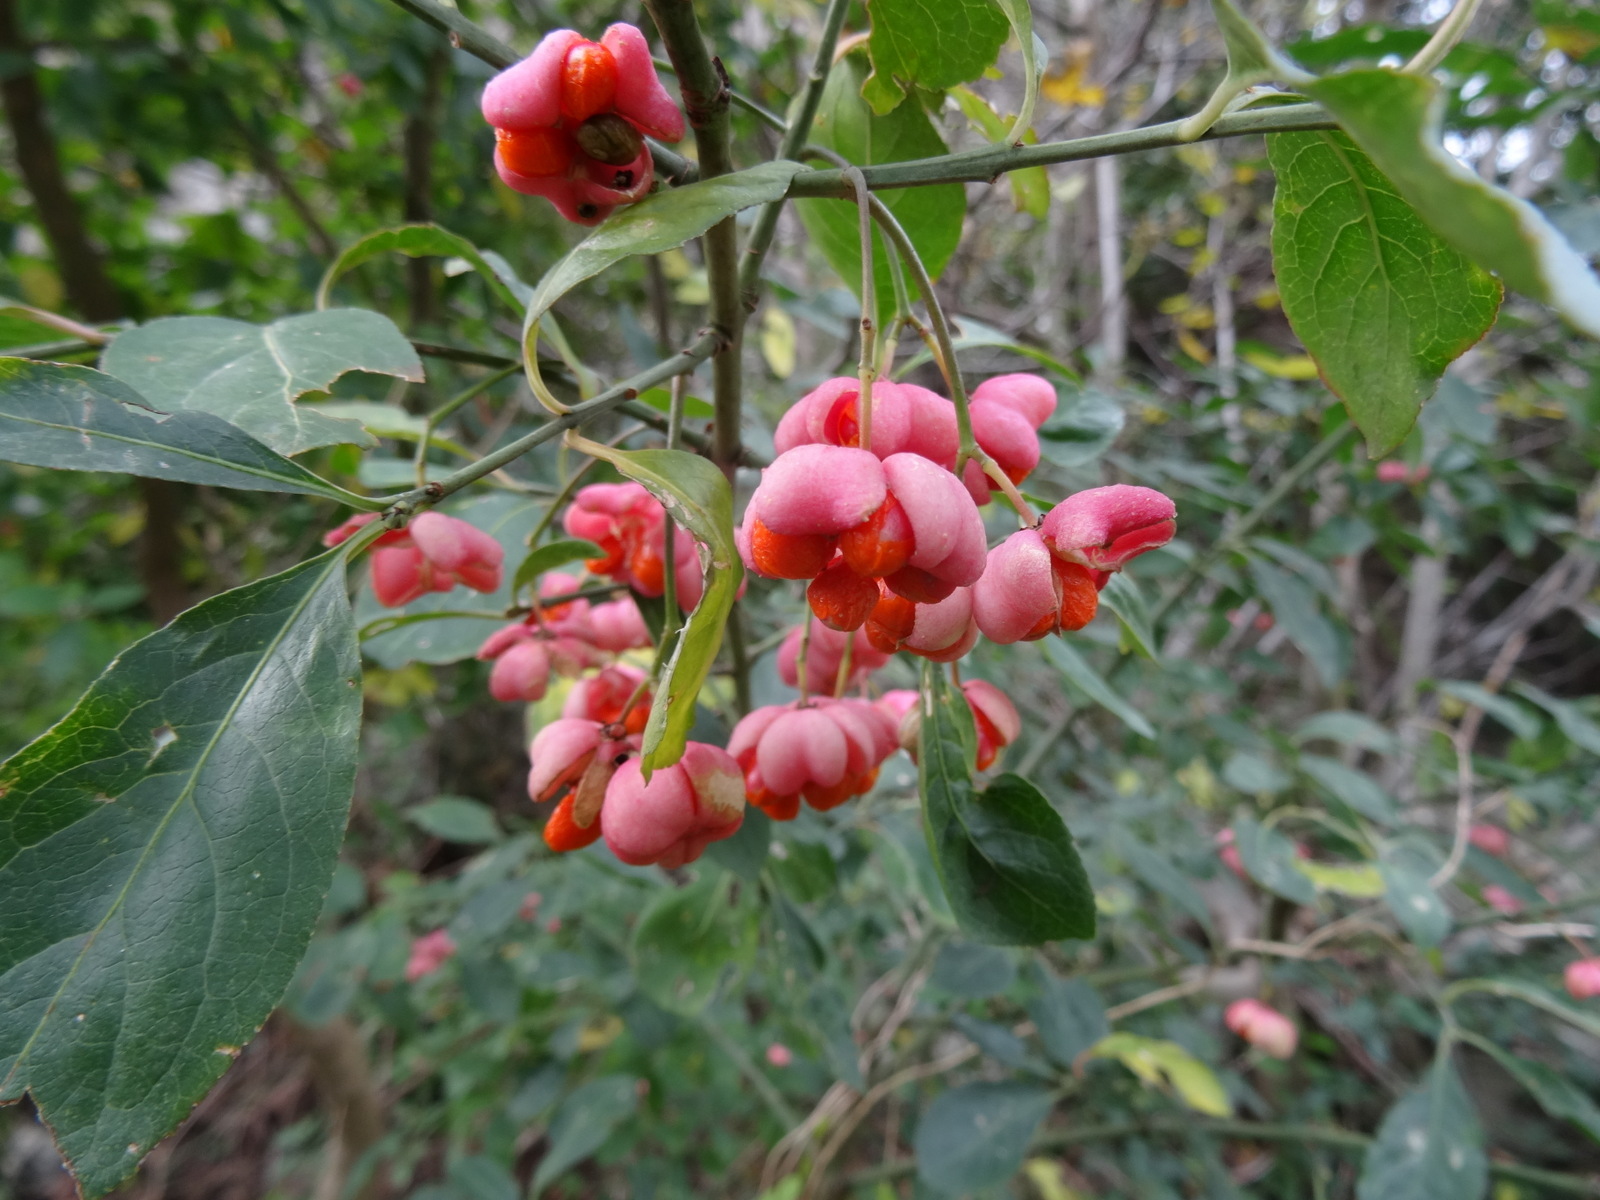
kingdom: Plantae
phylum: Tracheophyta
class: Magnoliopsida
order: Celastrales
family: Celastraceae
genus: Euonymus
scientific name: Euonymus europaeus
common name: Spindle
